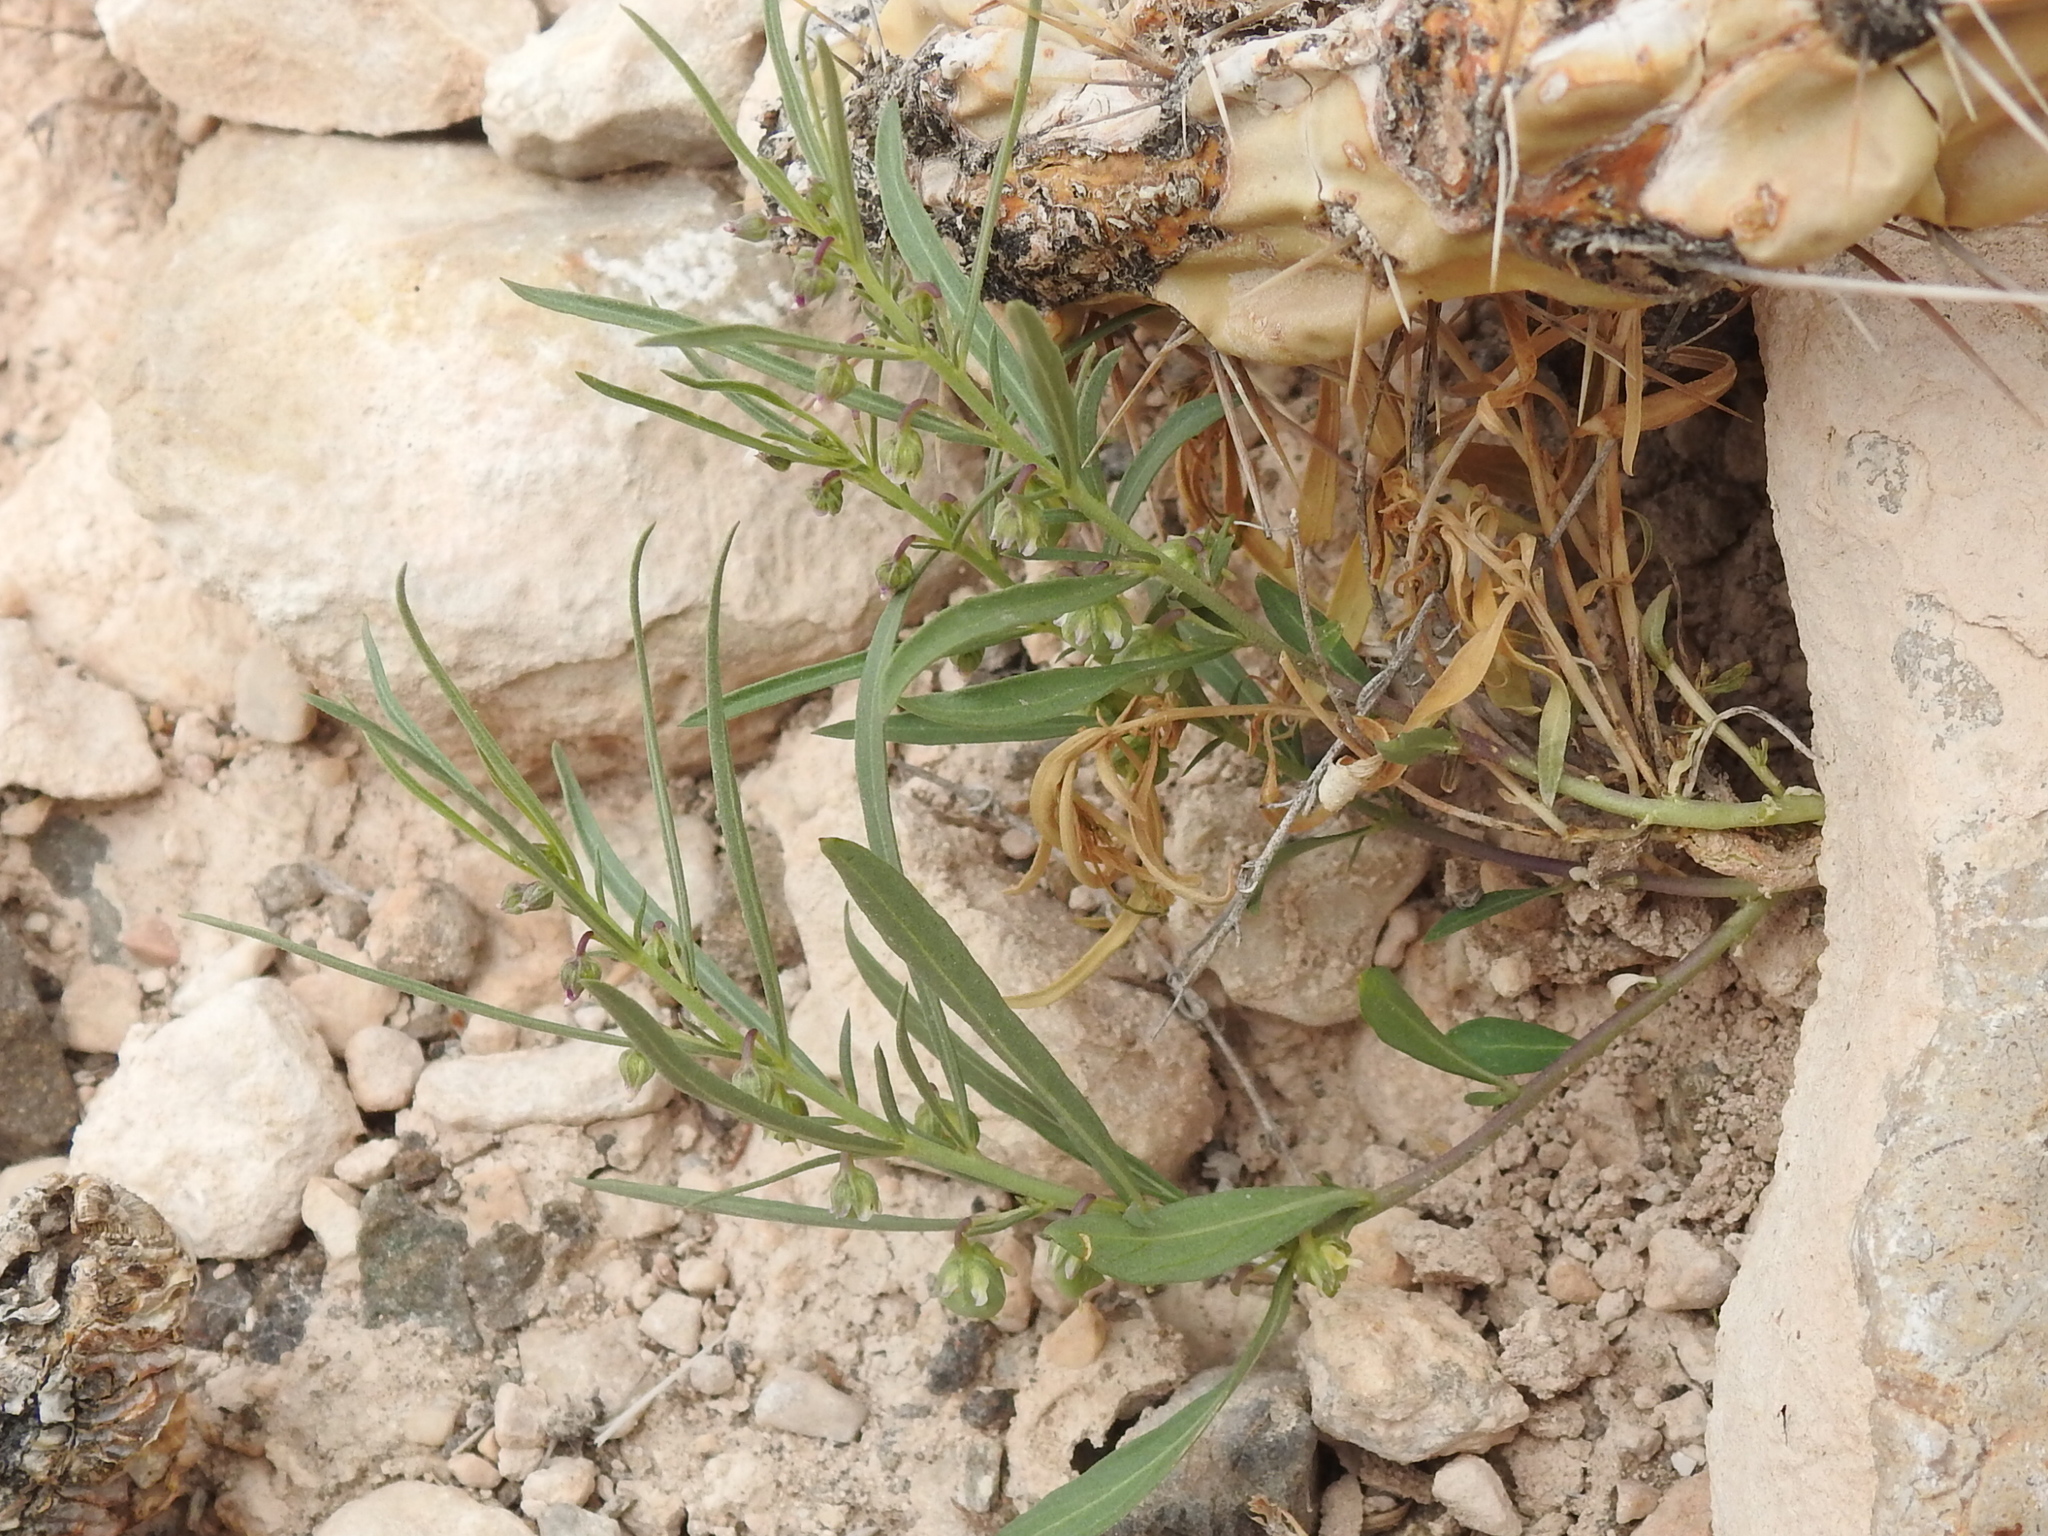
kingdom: Plantae
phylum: Tracheophyta
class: Magnoliopsida
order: Malpighiales
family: Violaceae
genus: Pombalia
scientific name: Pombalia verticillata
